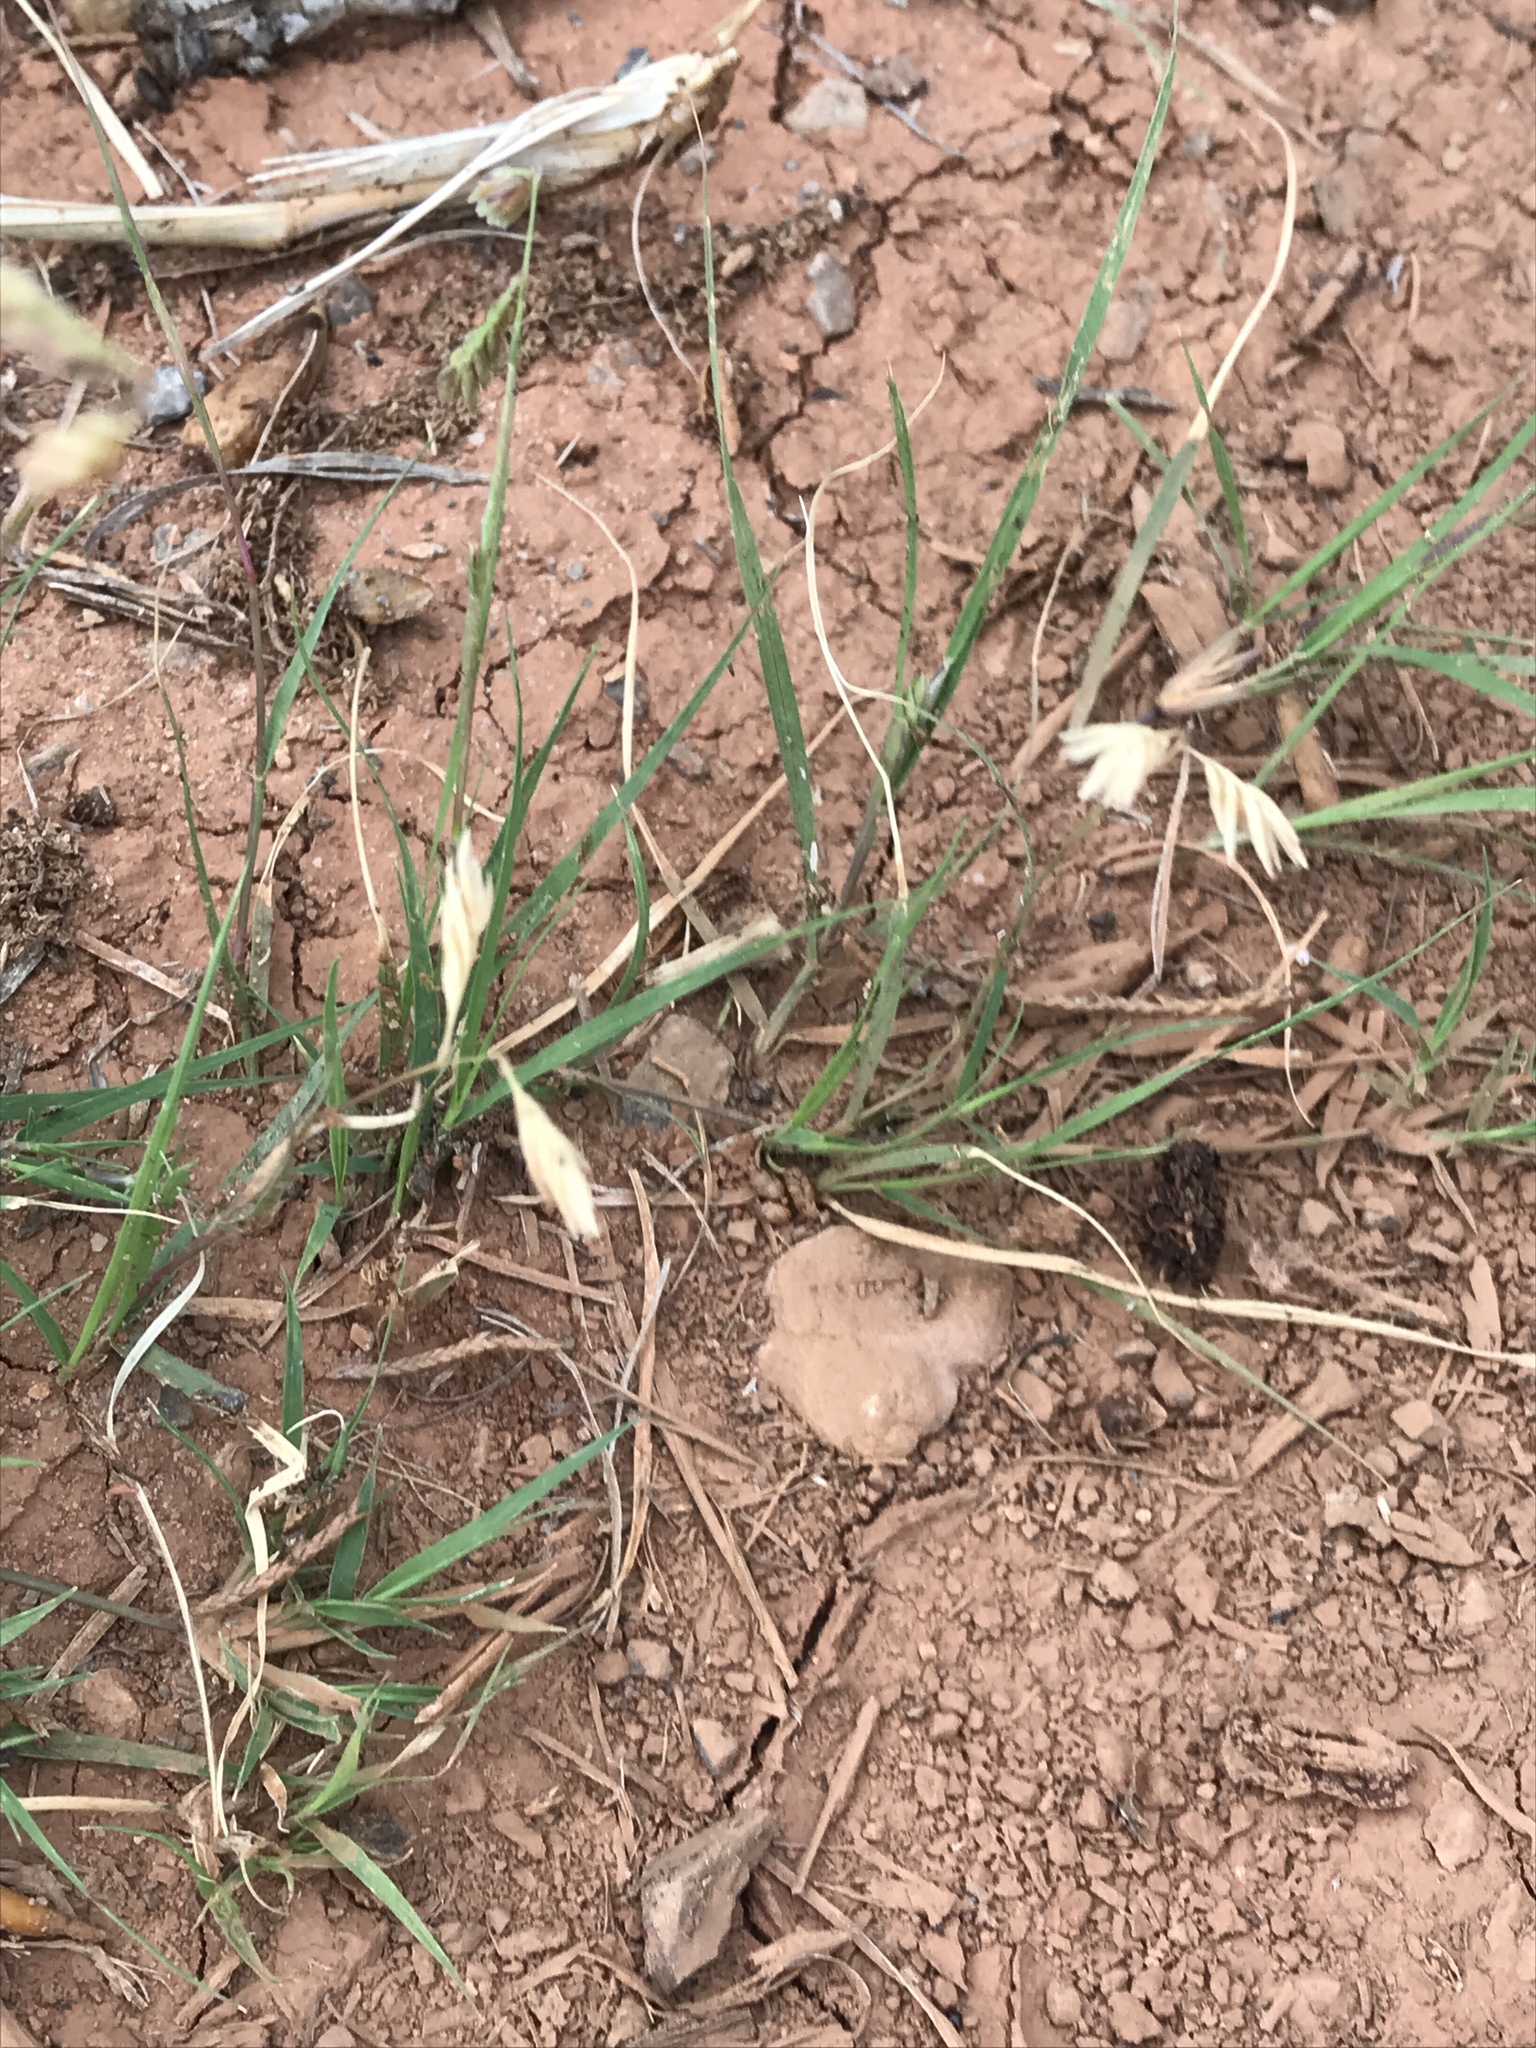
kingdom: Plantae
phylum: Tracheophyta
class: Liliopsida
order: Poales
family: Poaceae
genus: Bouteloua
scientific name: Bouteloua dactyloides
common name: Buffalo grass
